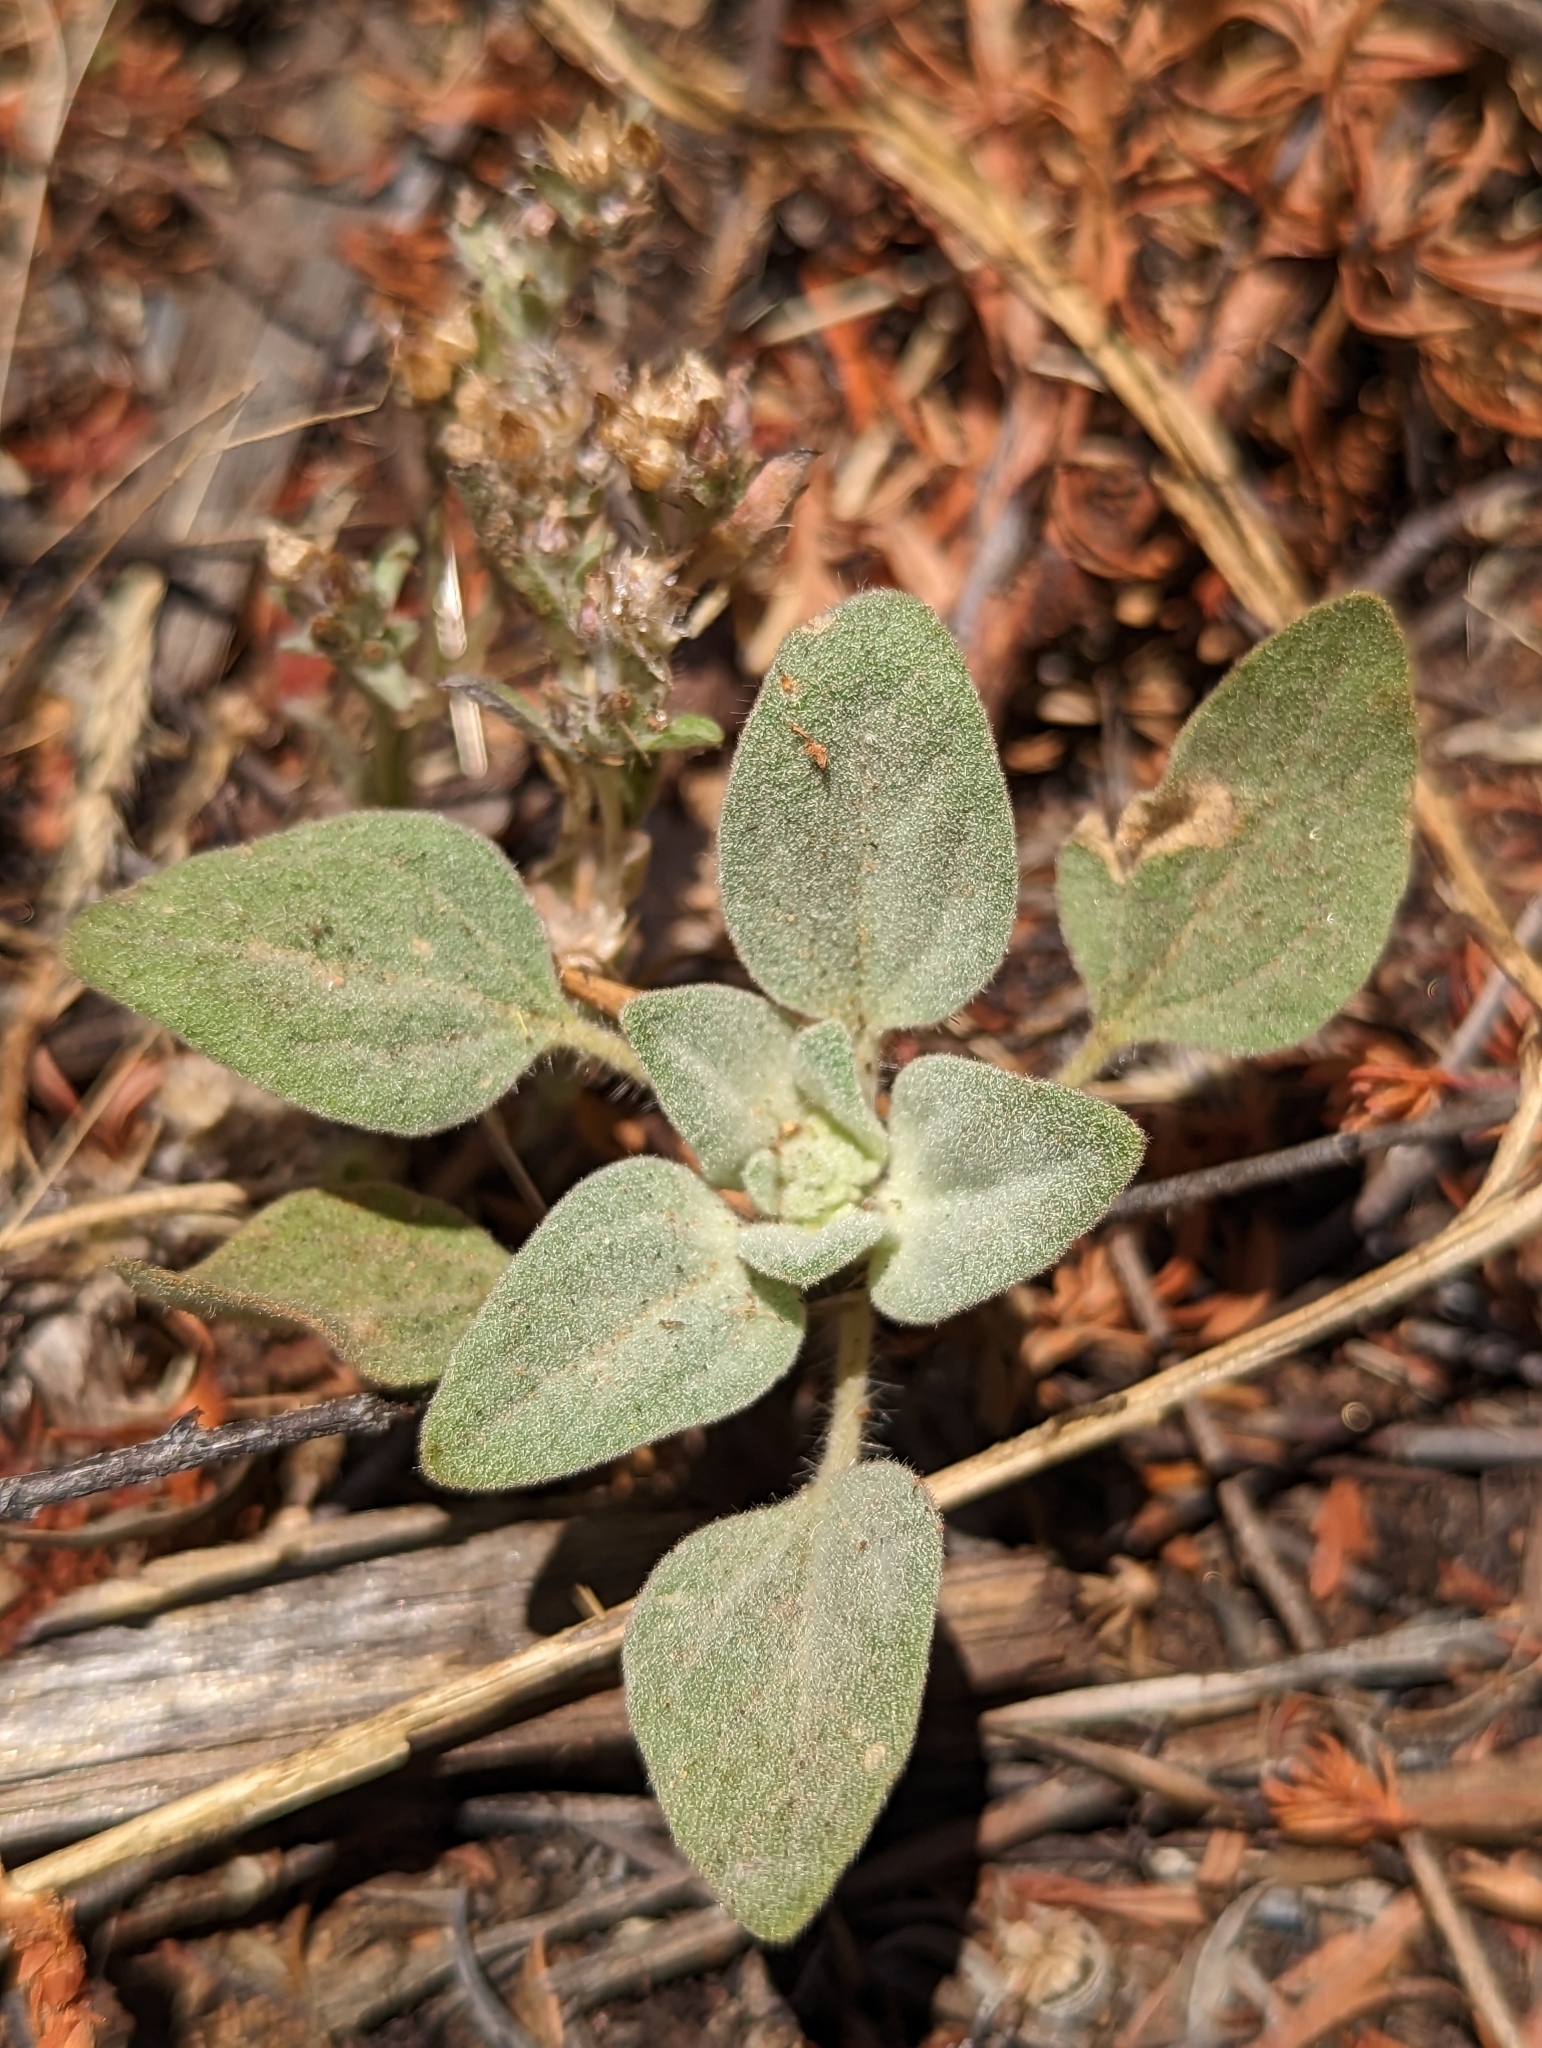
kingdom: Plantae
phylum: Tracheophyta
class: Magnoliopsida
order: Malpighiales
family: Euphorbiaceae
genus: Croton
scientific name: Croton setiger
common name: Dove weed
